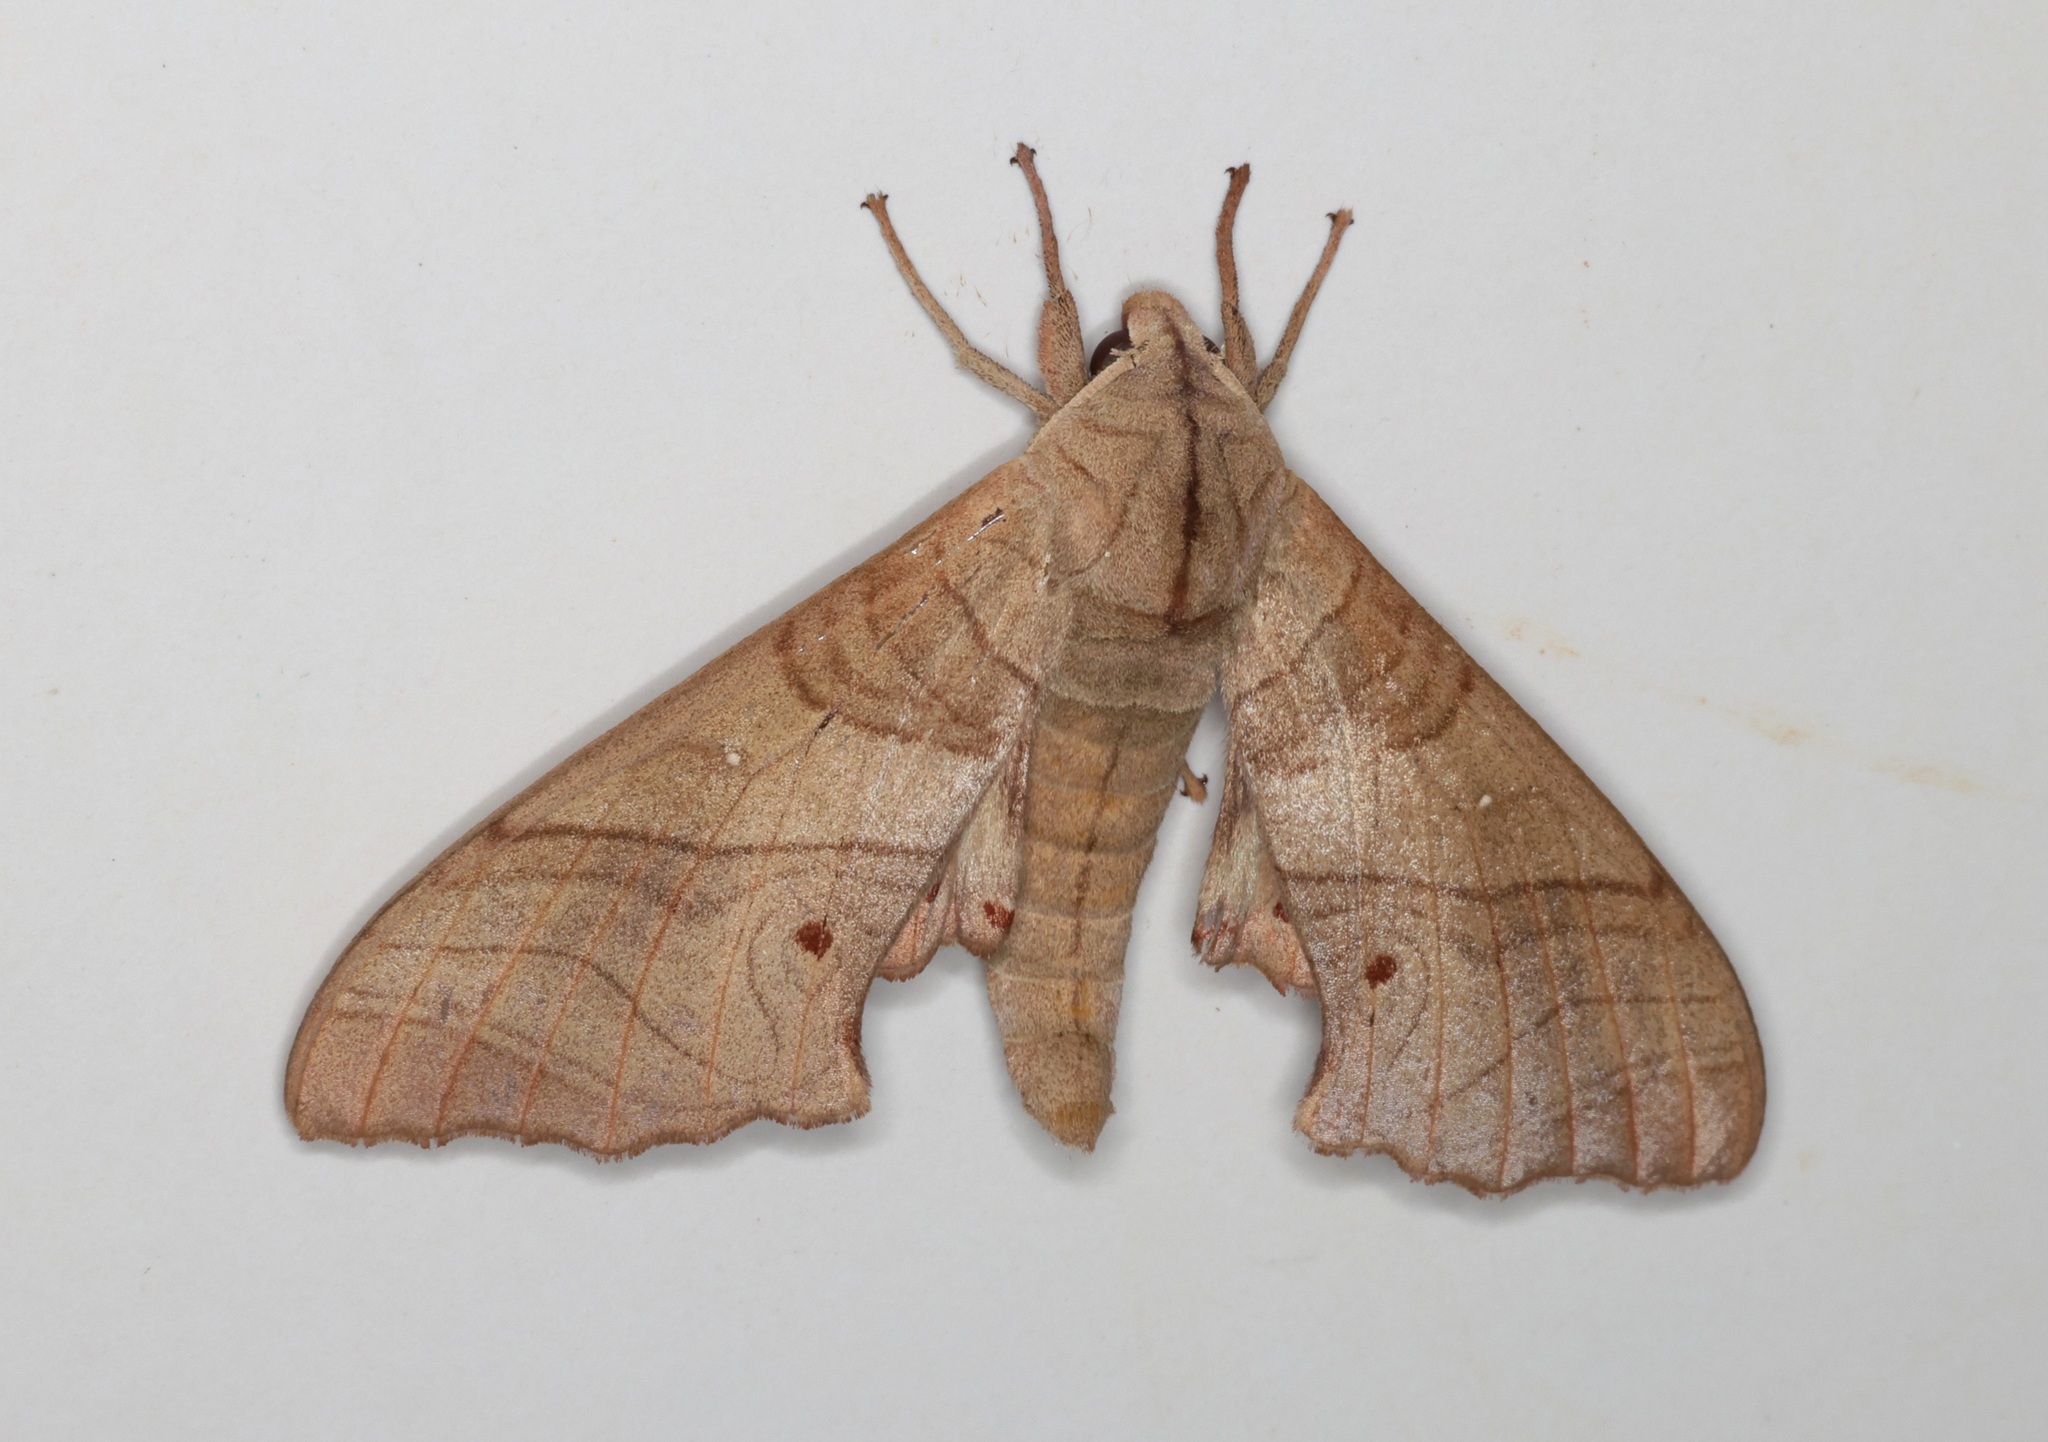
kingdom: Animalia
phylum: Arthropoda
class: Insecta
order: Lepidoptera
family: Sphingidae
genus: Marumba
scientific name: Marumba dyras
